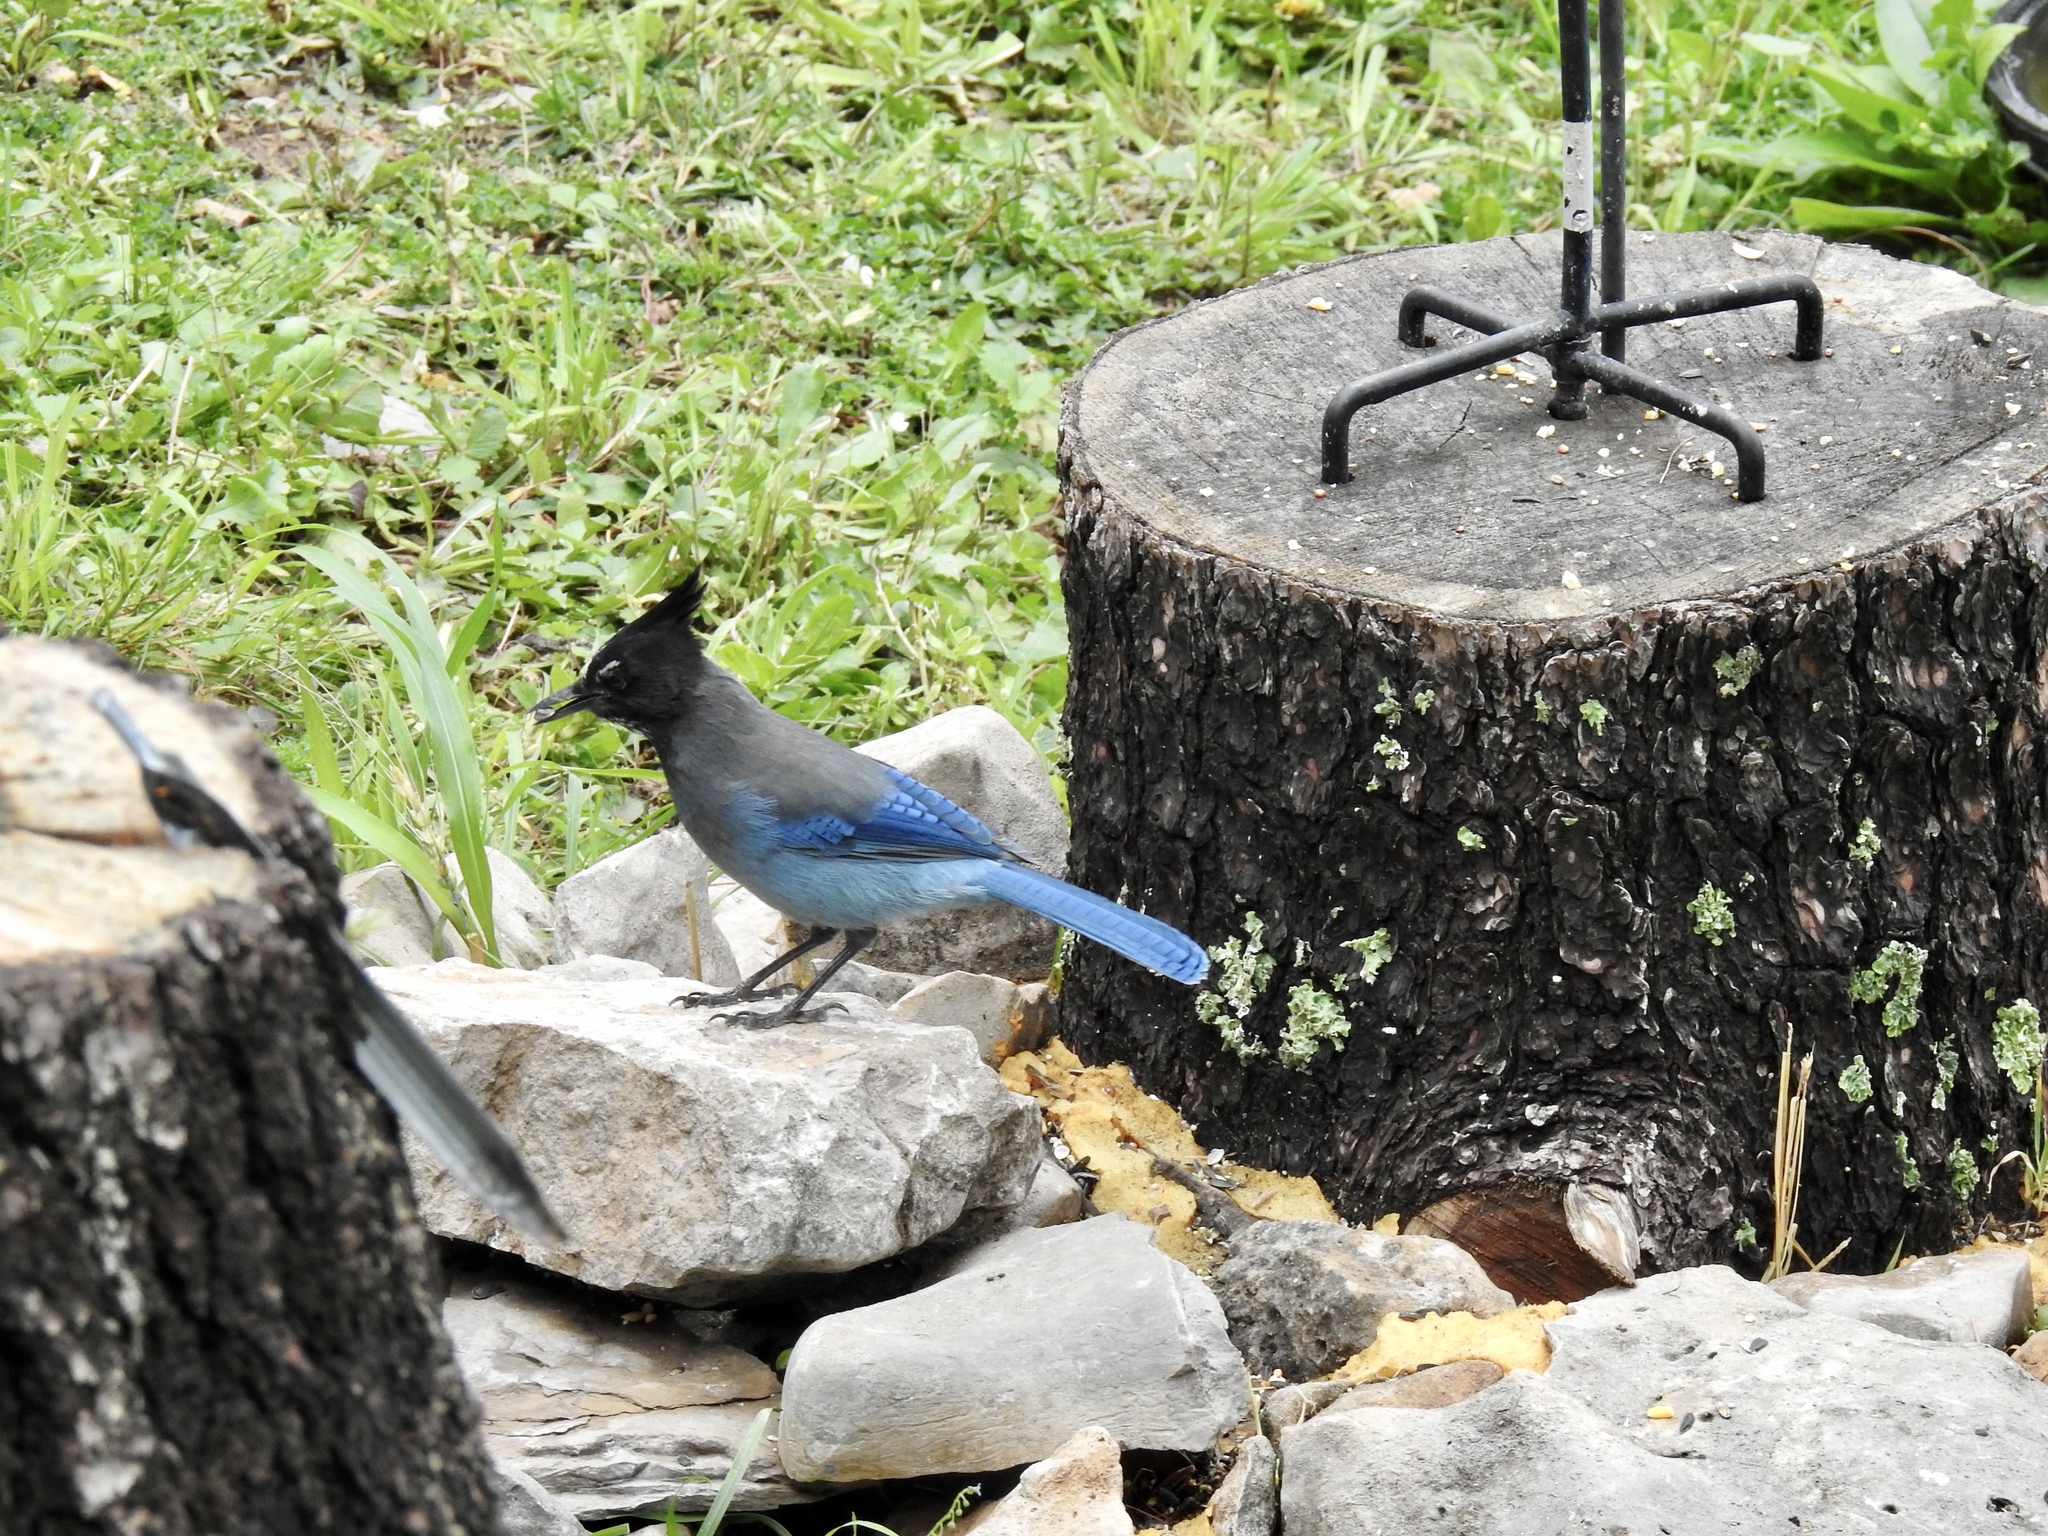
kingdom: Animalia
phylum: Chordata
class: Aves
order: Passeriformes
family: Corvidae
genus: Cyanocitta
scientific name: Cyanocitta stelleri
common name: Steller's jay
